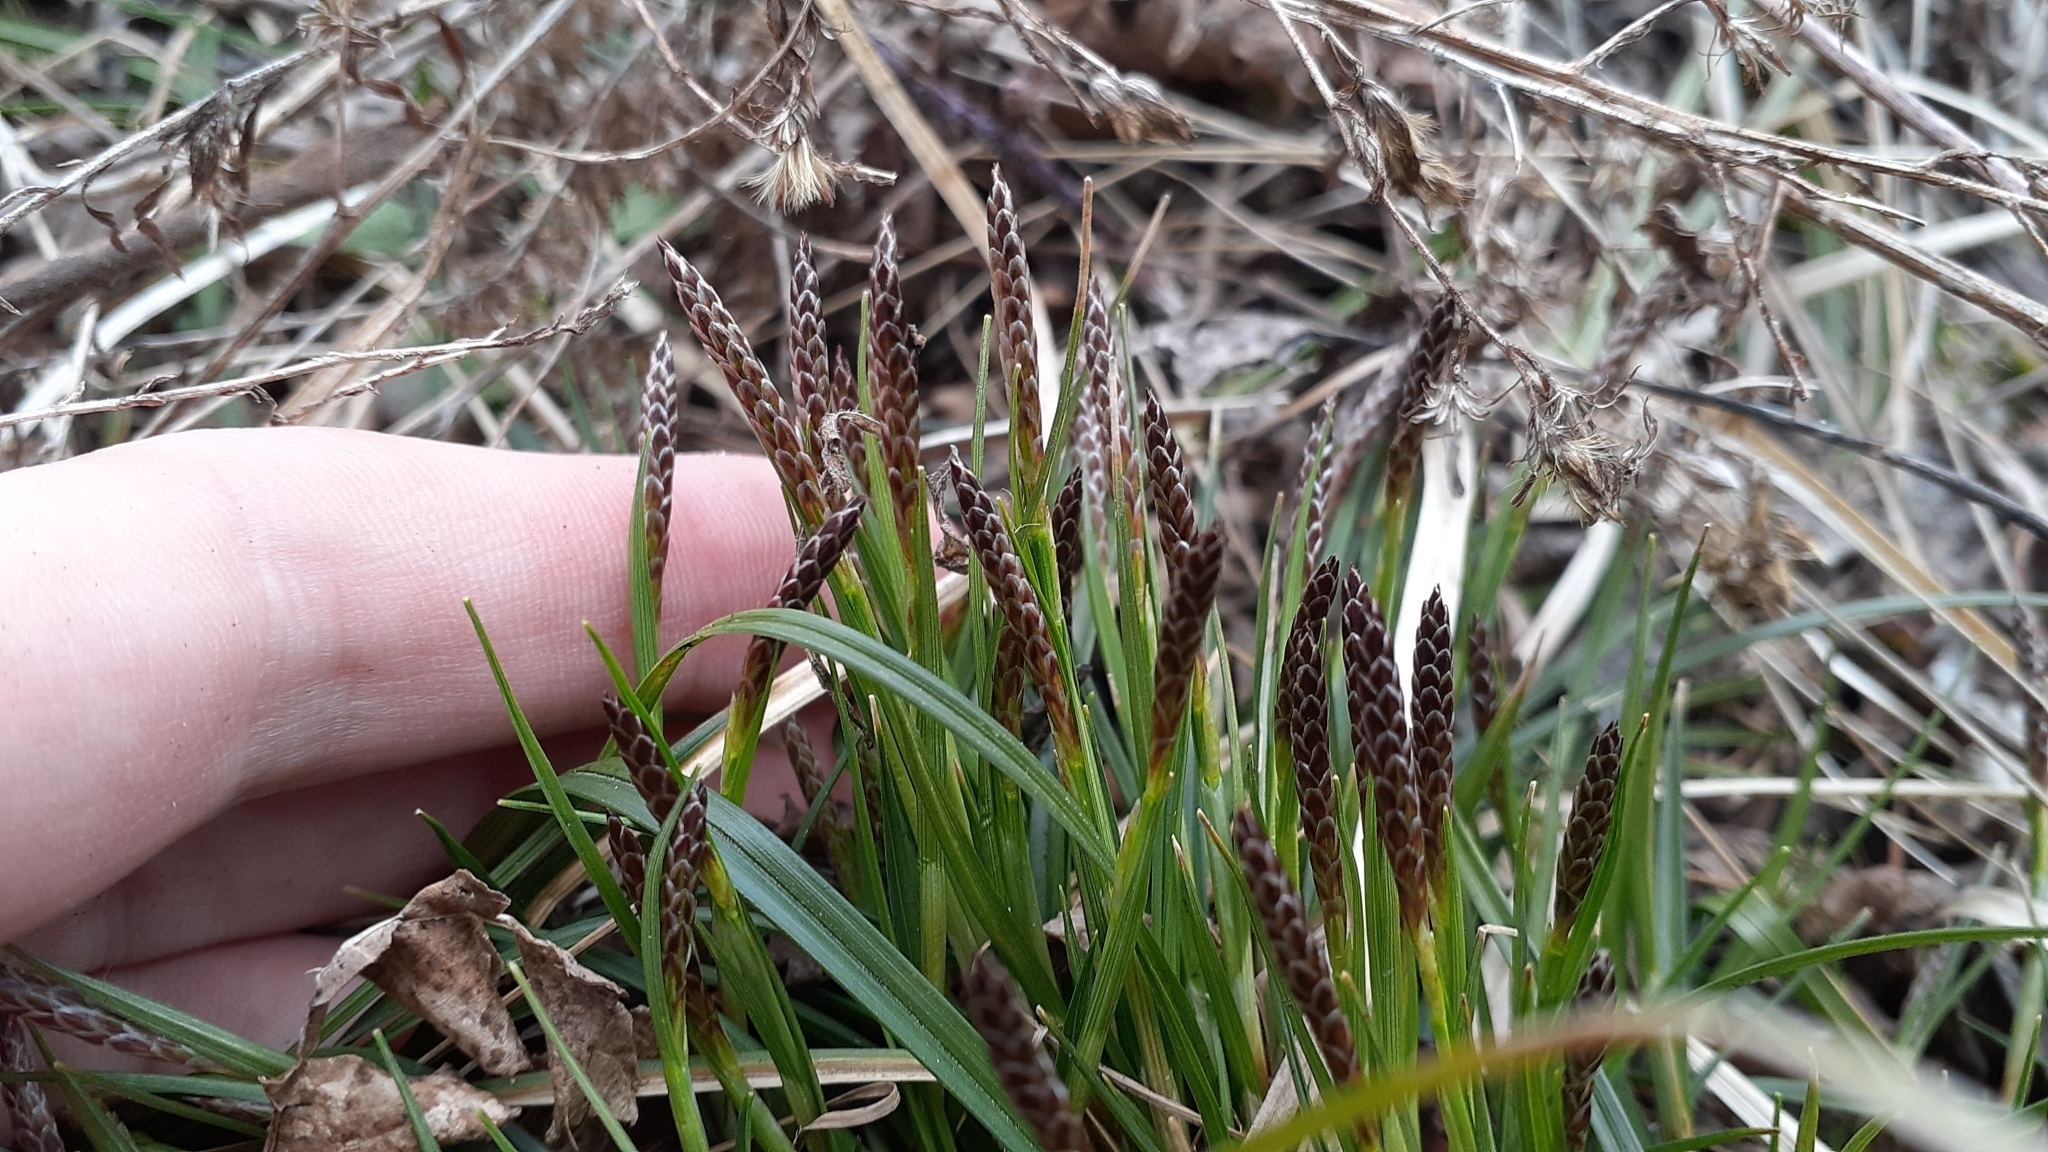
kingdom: Plantae
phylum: Tracheophyta
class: Liliopsida
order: Poales
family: Cyperaceae
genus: Carex
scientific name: Carex pedunculata
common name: Pedunculate sedge
